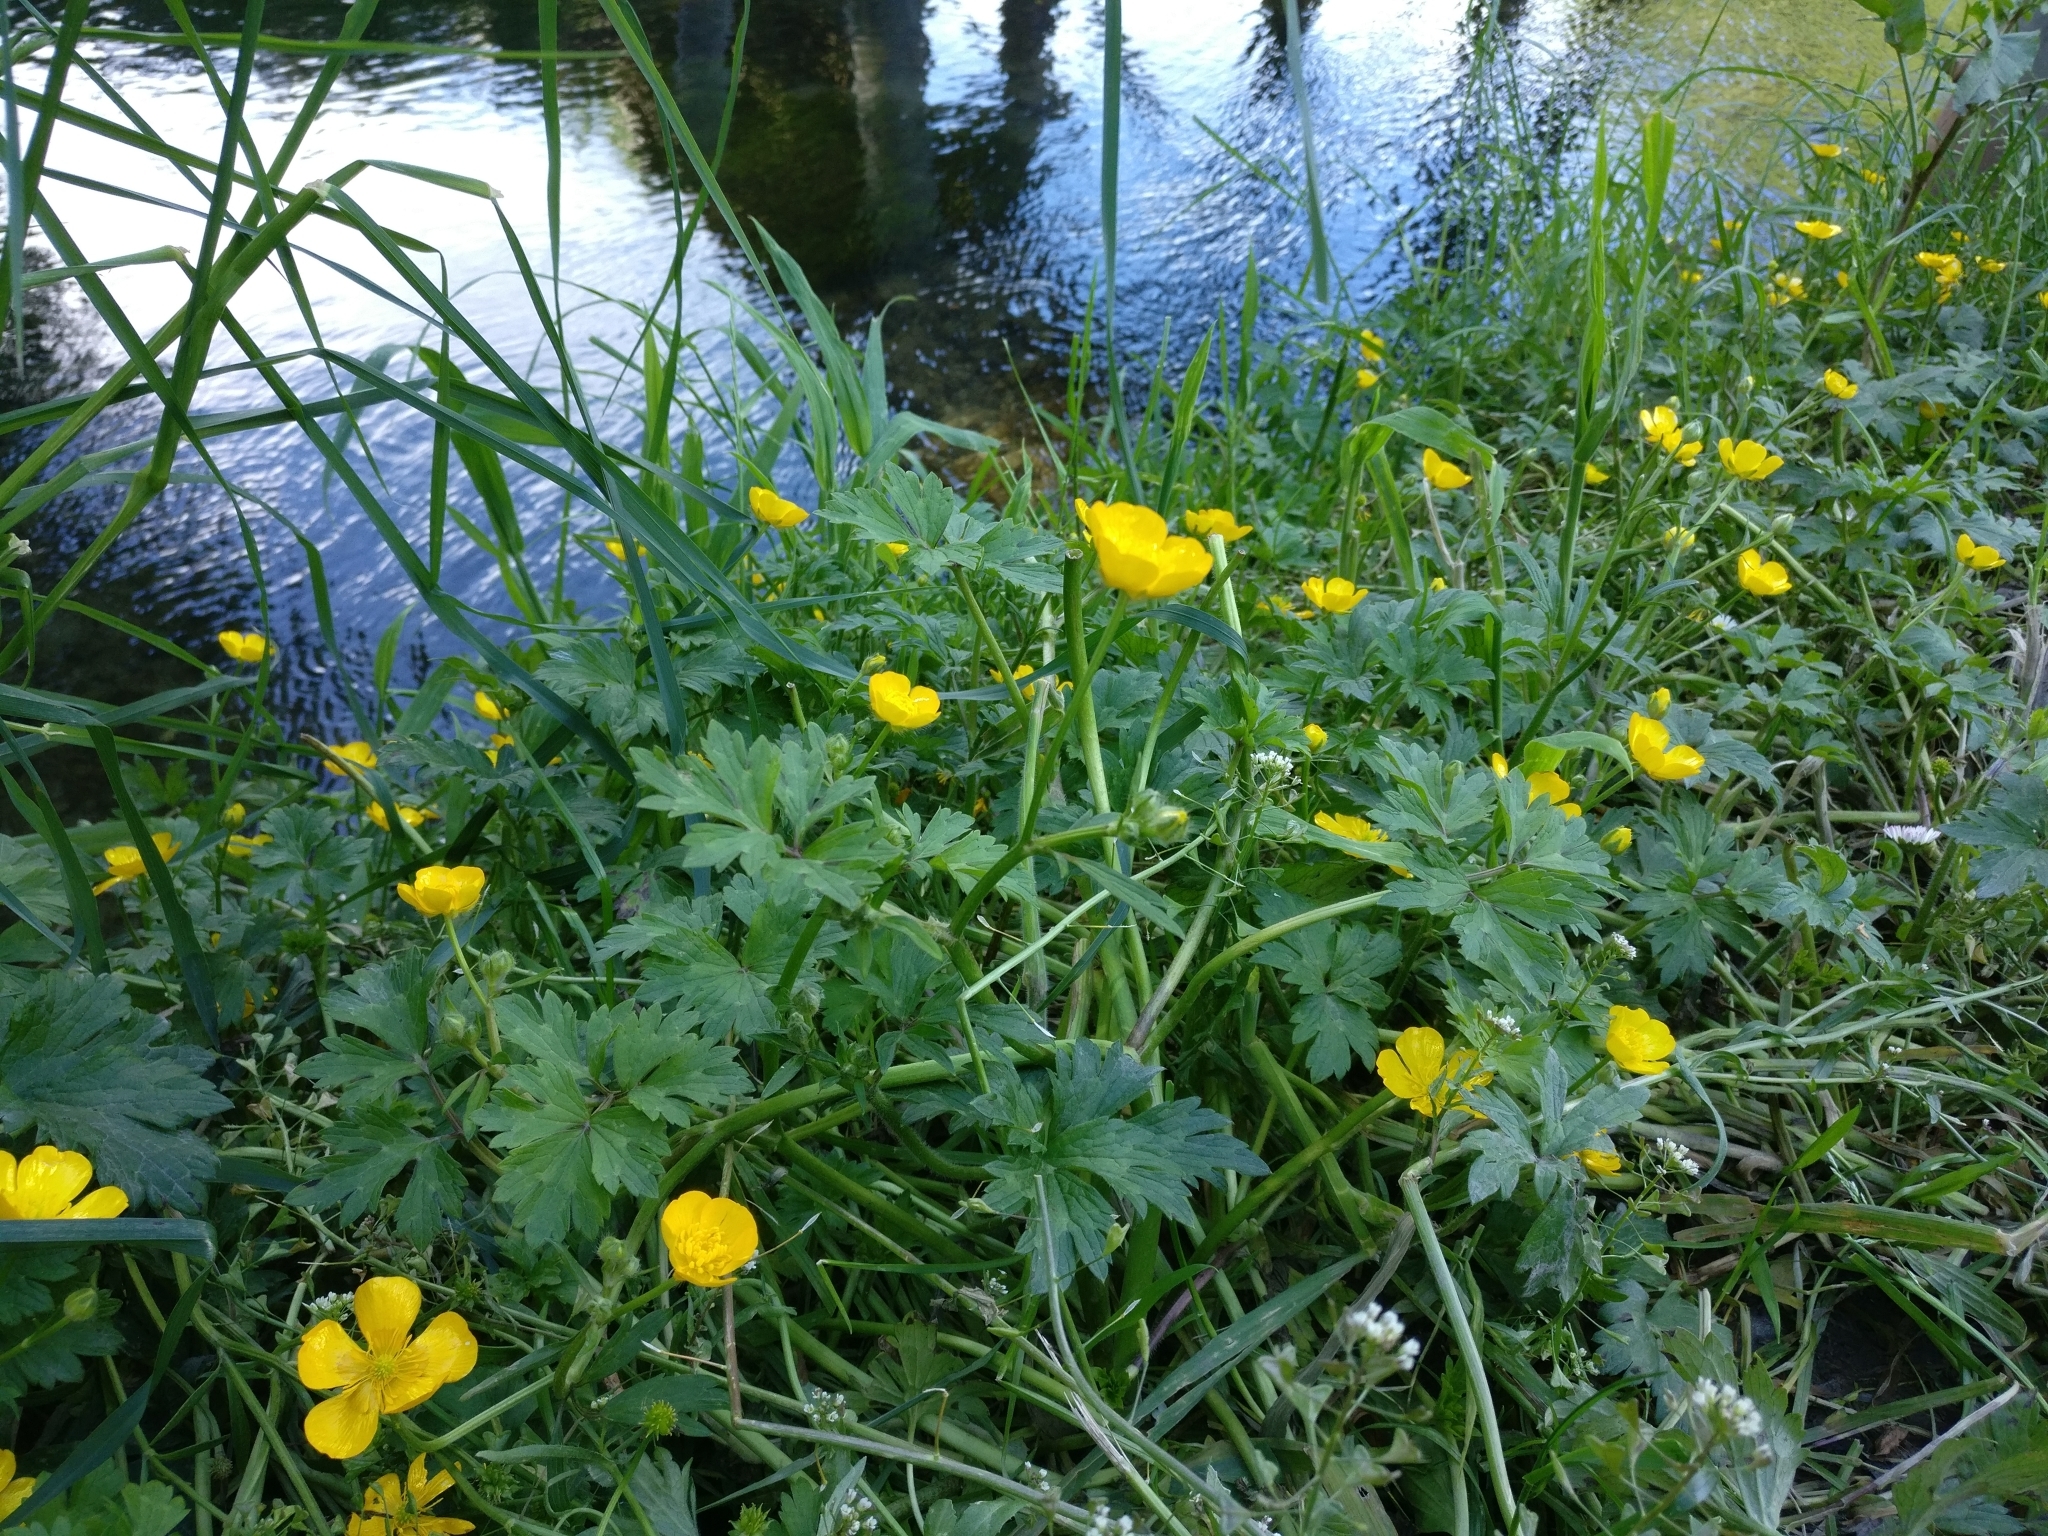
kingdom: Plantae
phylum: Tracheophyta
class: Magnoliopsida
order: Ranunculales
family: Ranunculaceae
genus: Ranunculus
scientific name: Ranunculus repens
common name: Creeping buttercup
